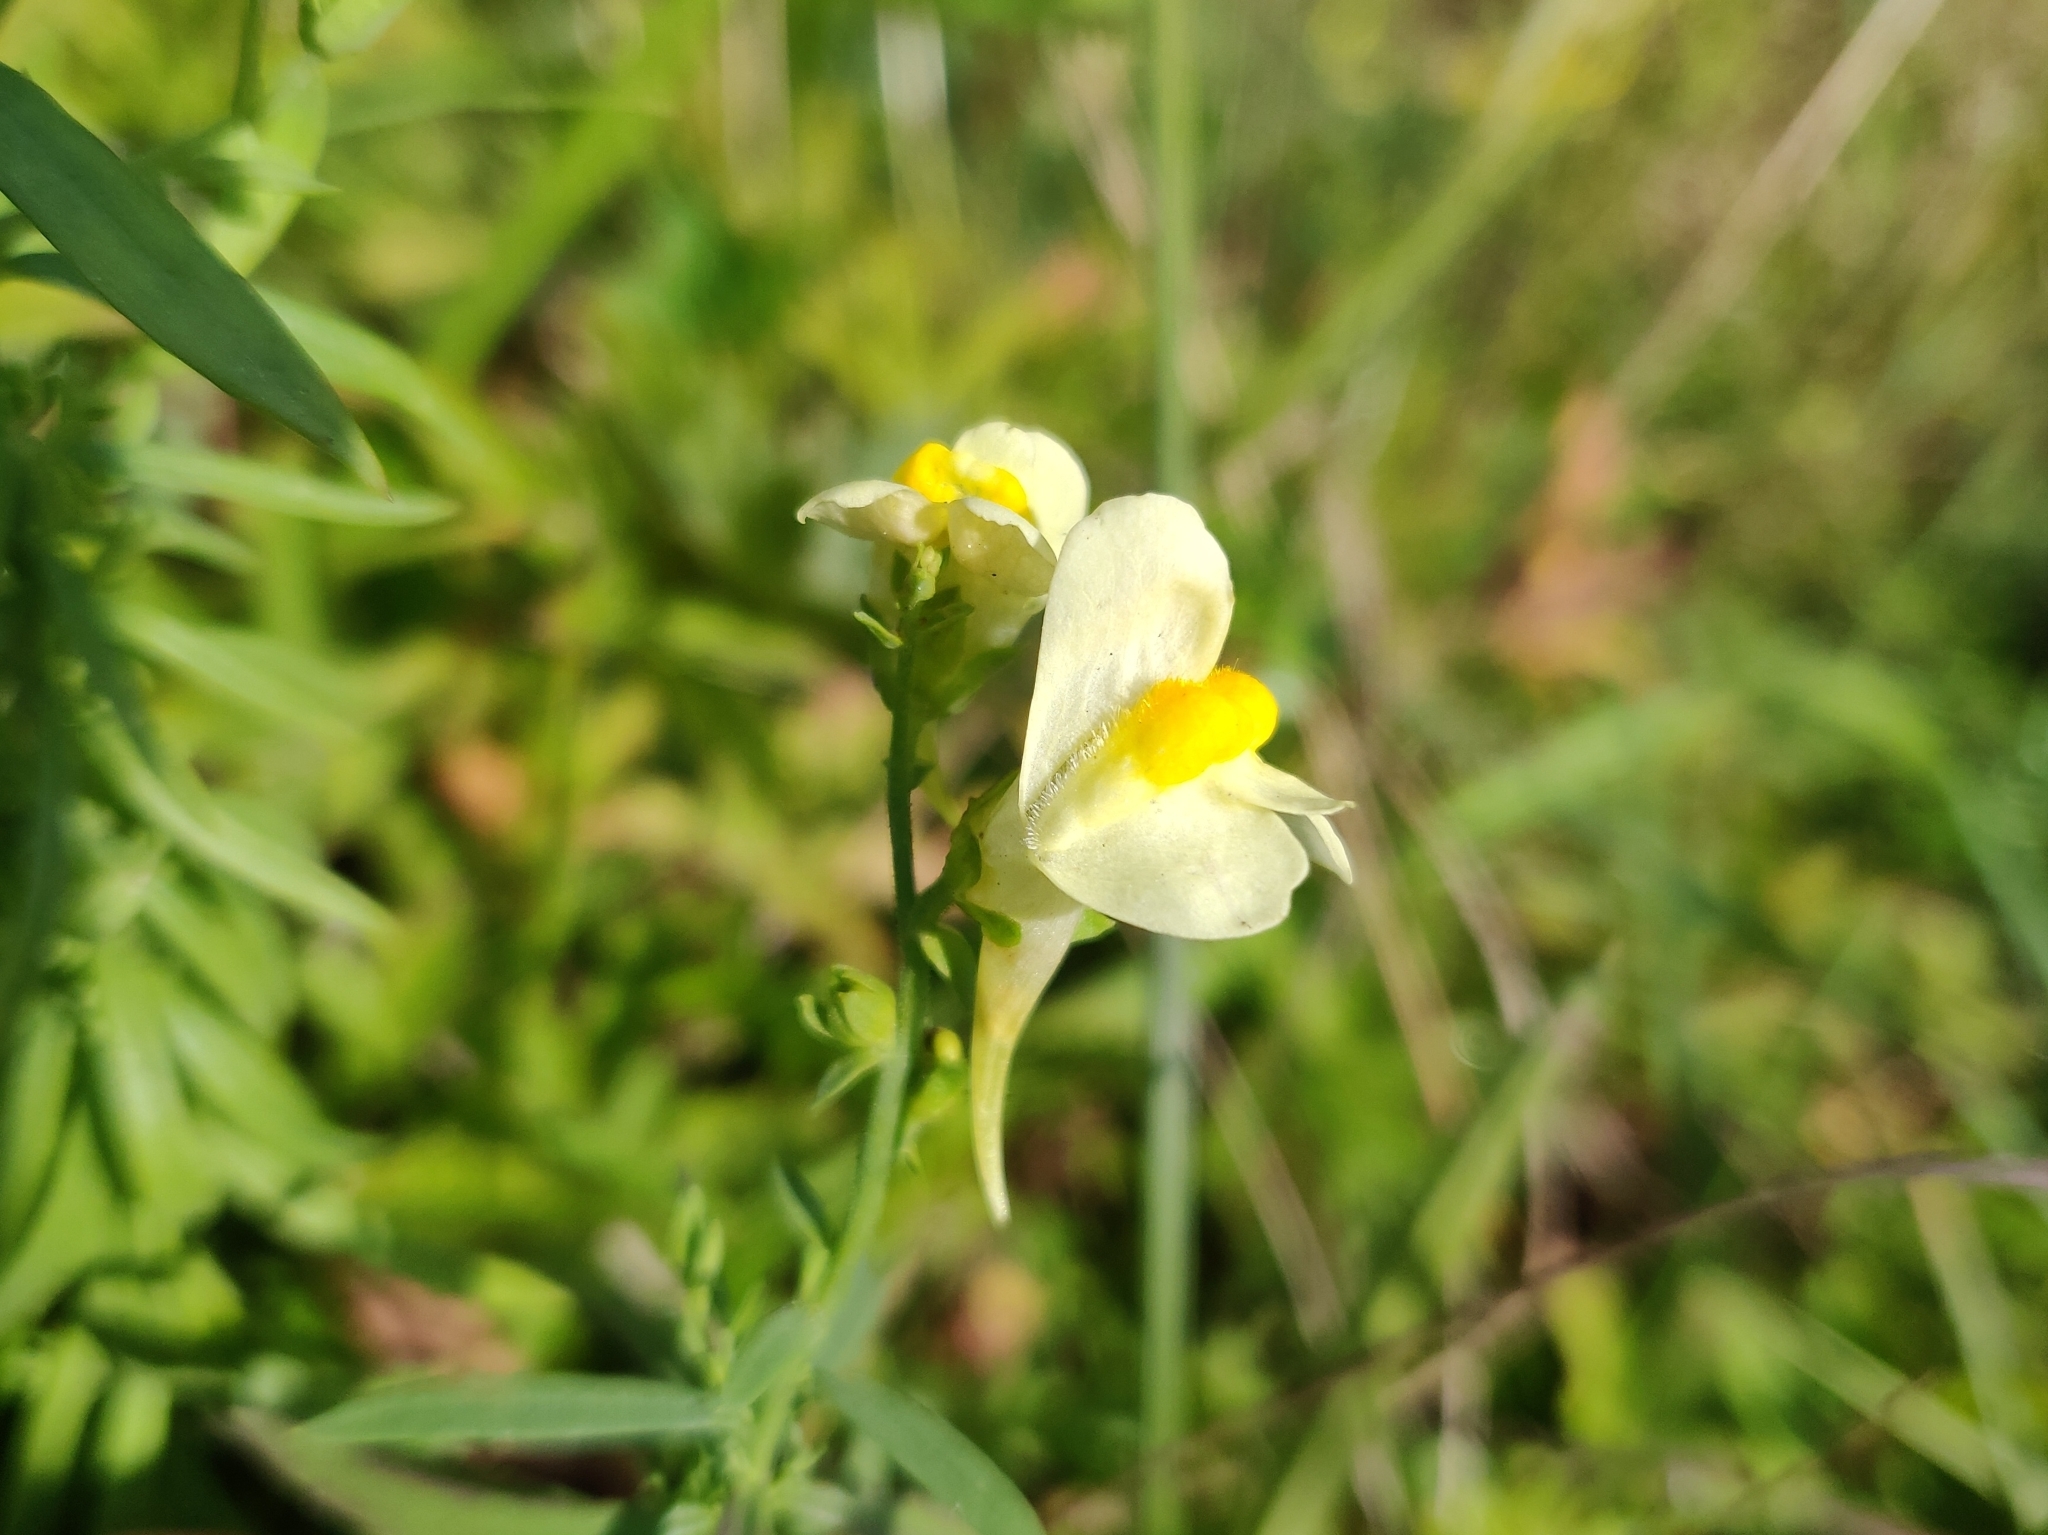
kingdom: Plantae
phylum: Tracheophyta
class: Magnoliopsida
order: Lamiales
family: Plantaginaceae
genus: Linaria
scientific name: Linaria vulgaris
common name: Butter and eggs
